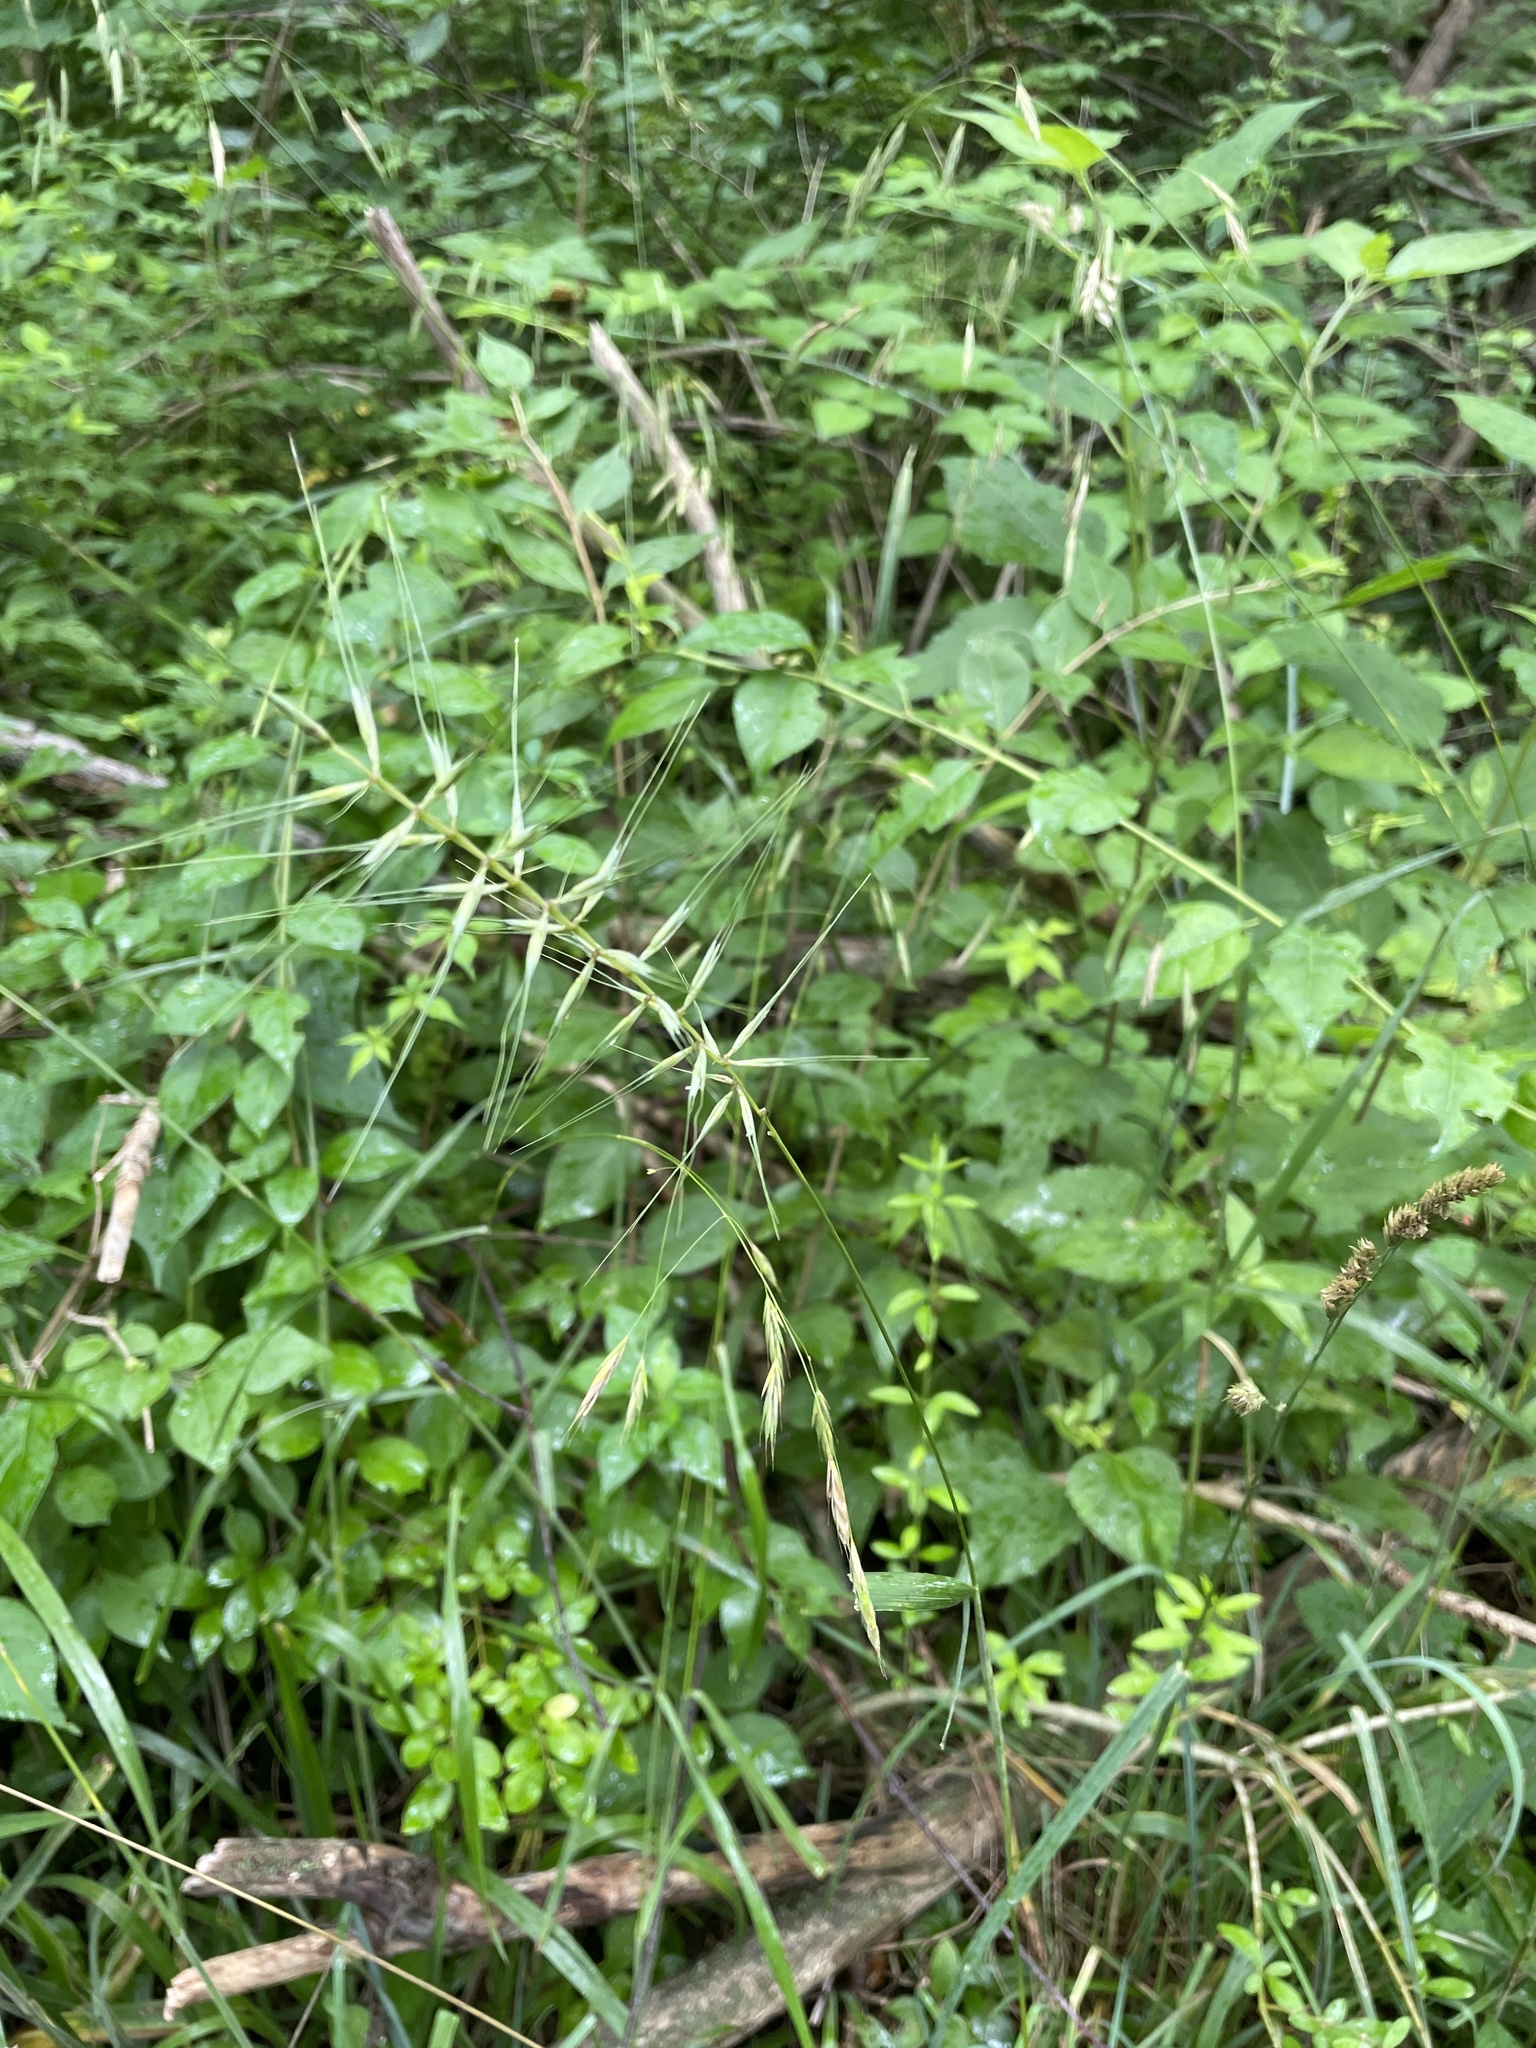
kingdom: Plantae
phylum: Tracheophyta
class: Liliopsida
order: Poales
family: Poaceae
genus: Elymus
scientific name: Elymus hystrix
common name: Bottlebrush grass
